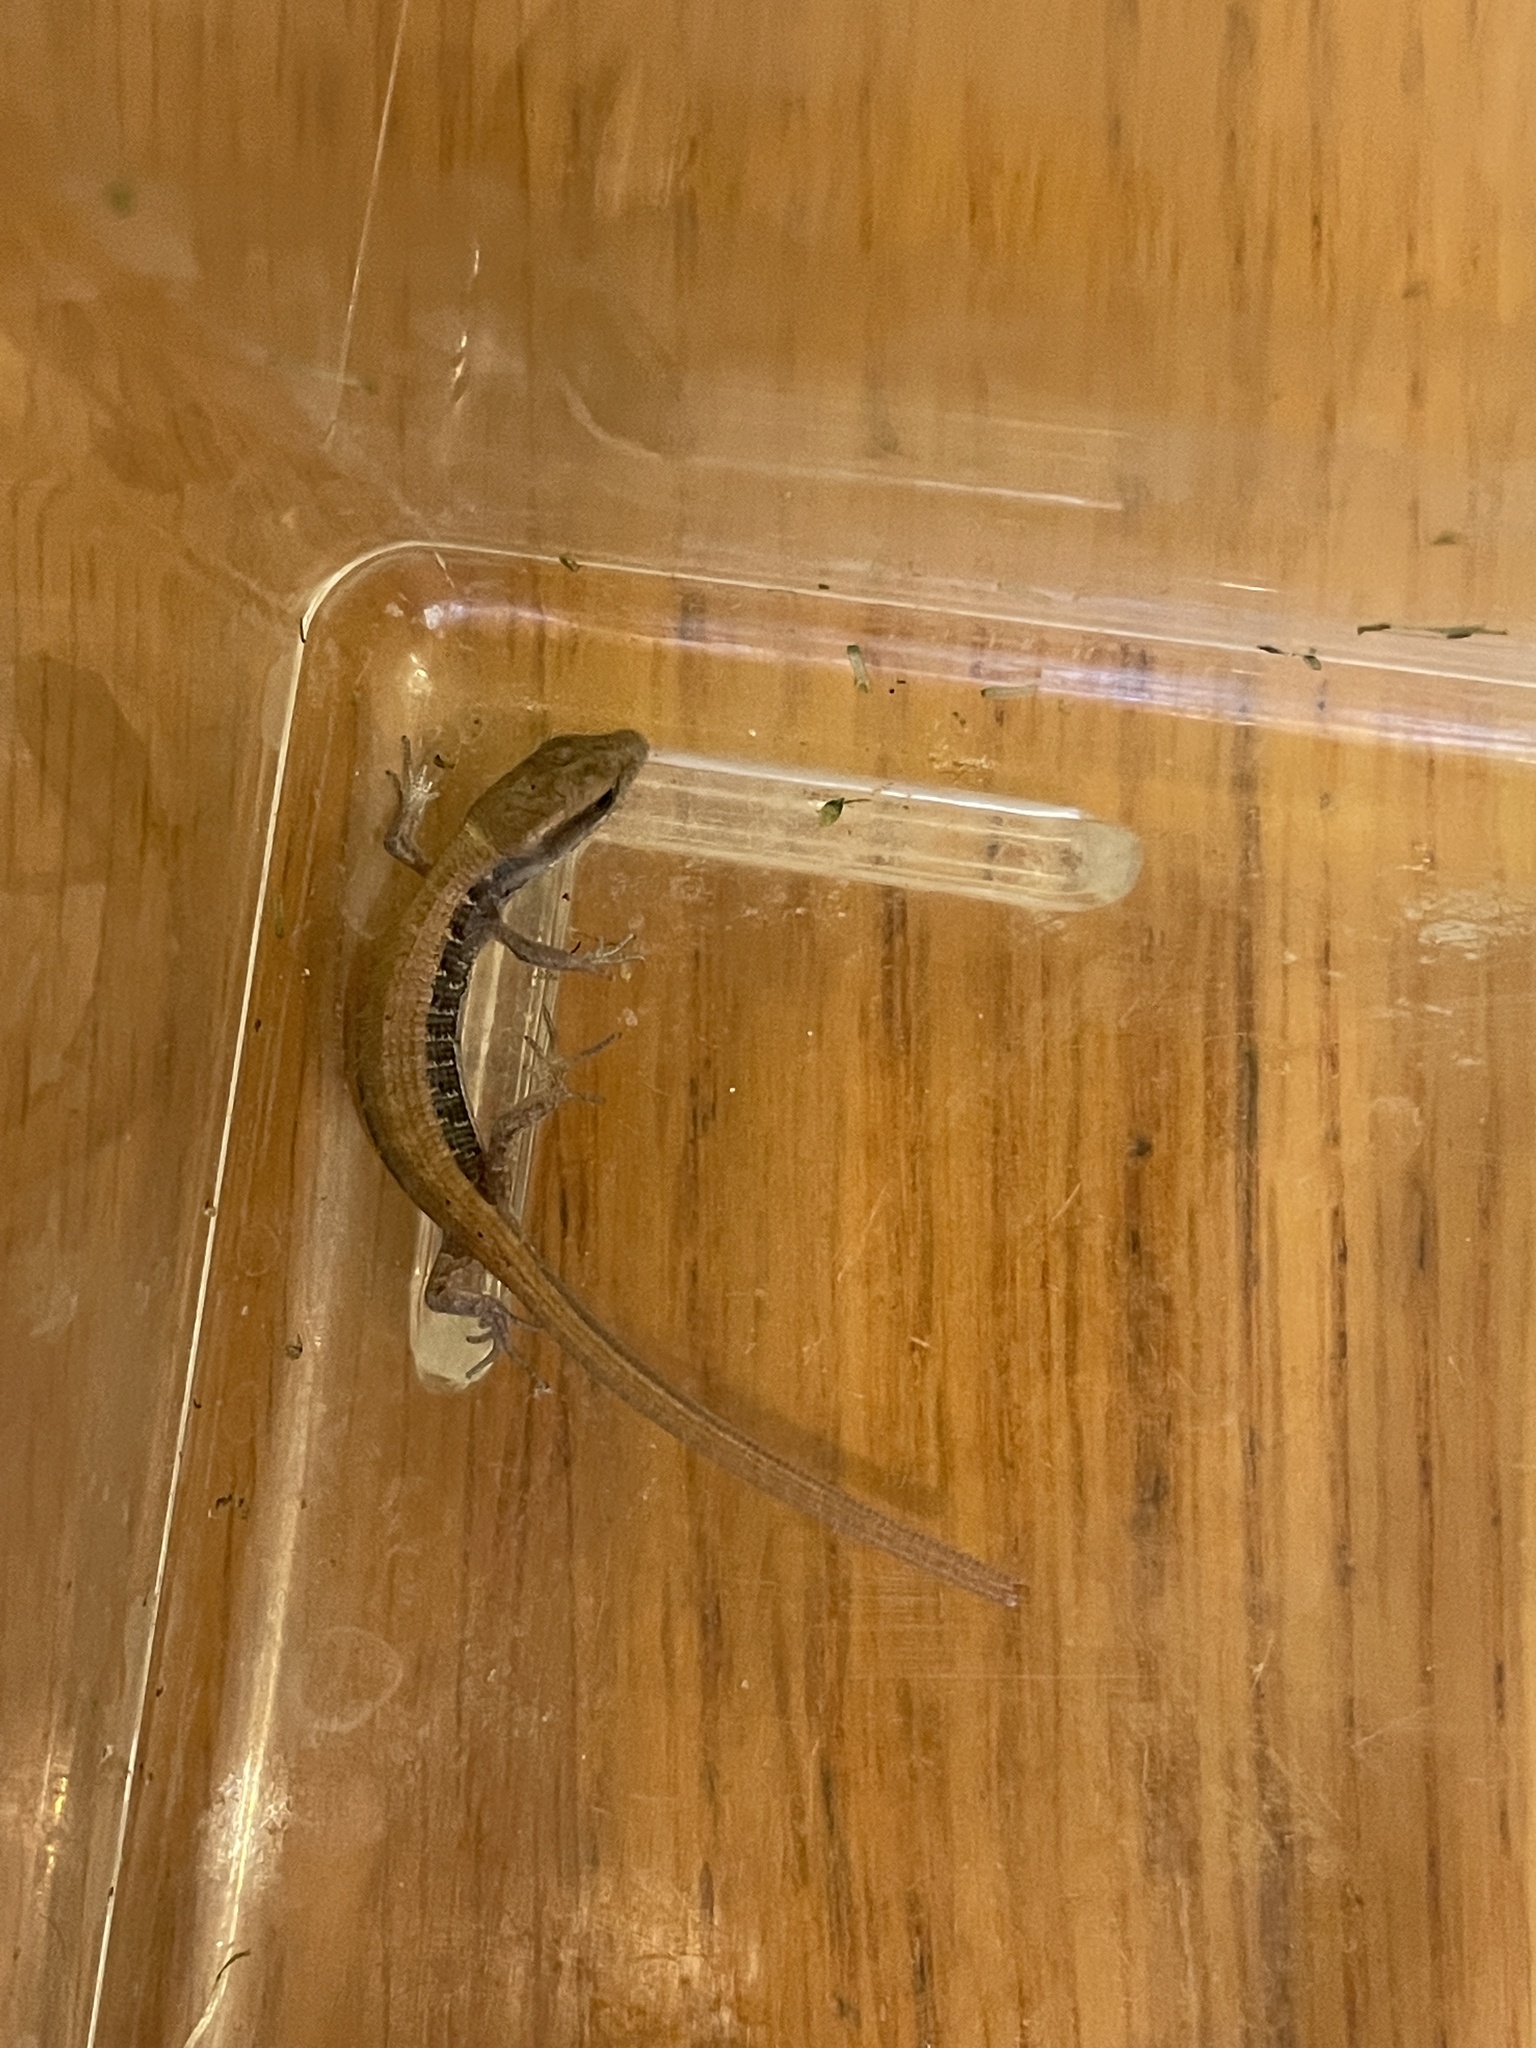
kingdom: Animalia
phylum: Chordata
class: Squamata
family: Anguidae
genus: Elgaria
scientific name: Elgaria multicarinata
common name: Southern alligator lizard
